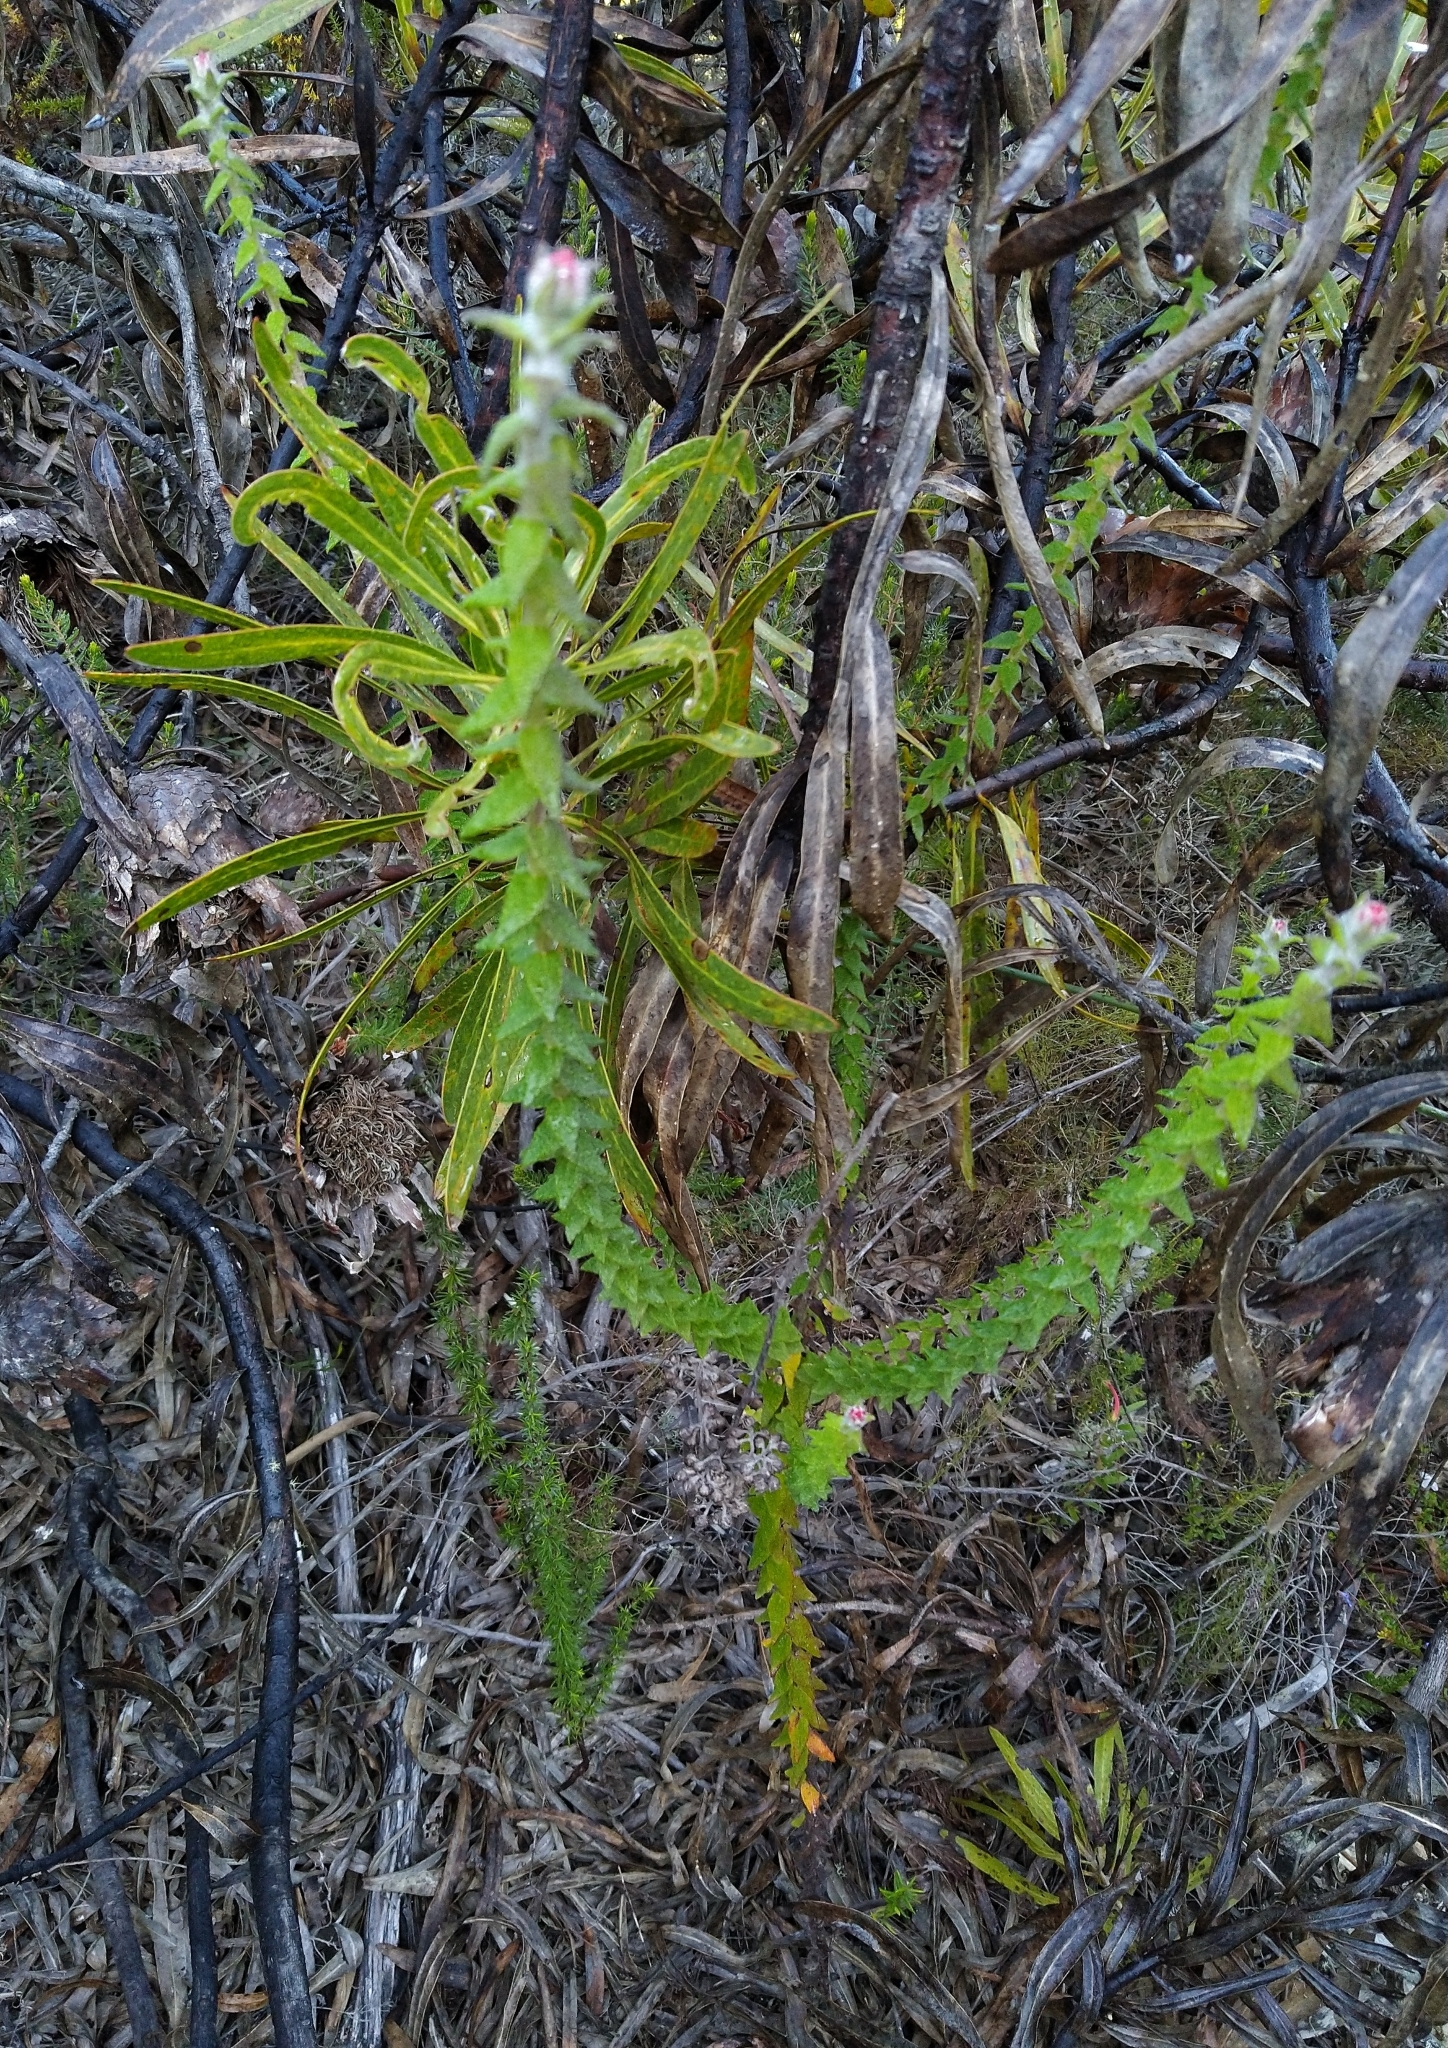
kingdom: Plantae
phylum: Tracheophyta
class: Magnoliopsida
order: Asterales
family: Asteraceae
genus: Helichrysum
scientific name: Helichrysum felinum
